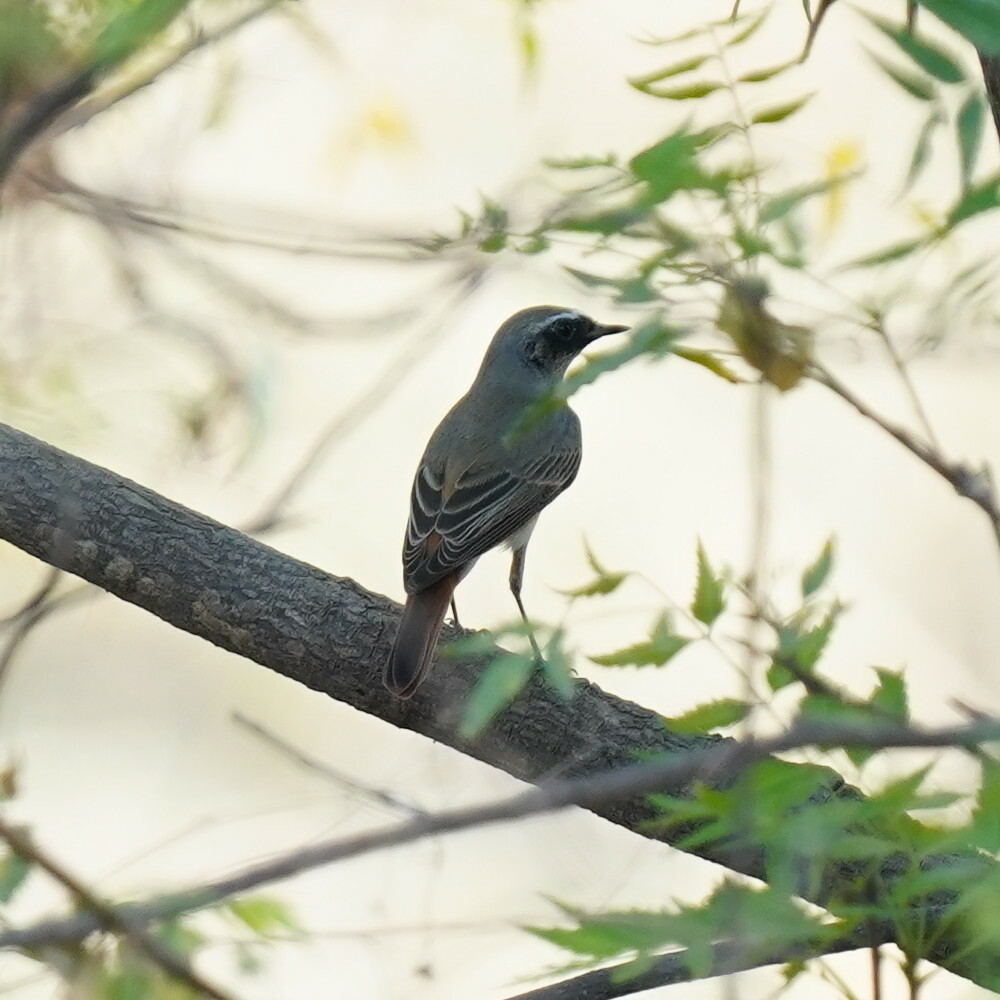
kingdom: Animalia
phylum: Chordata
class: Aves
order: Passeriformes
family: Muscicapidae
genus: Phoenicurus
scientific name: Phoenicurus phoenicurus
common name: Common redstart
